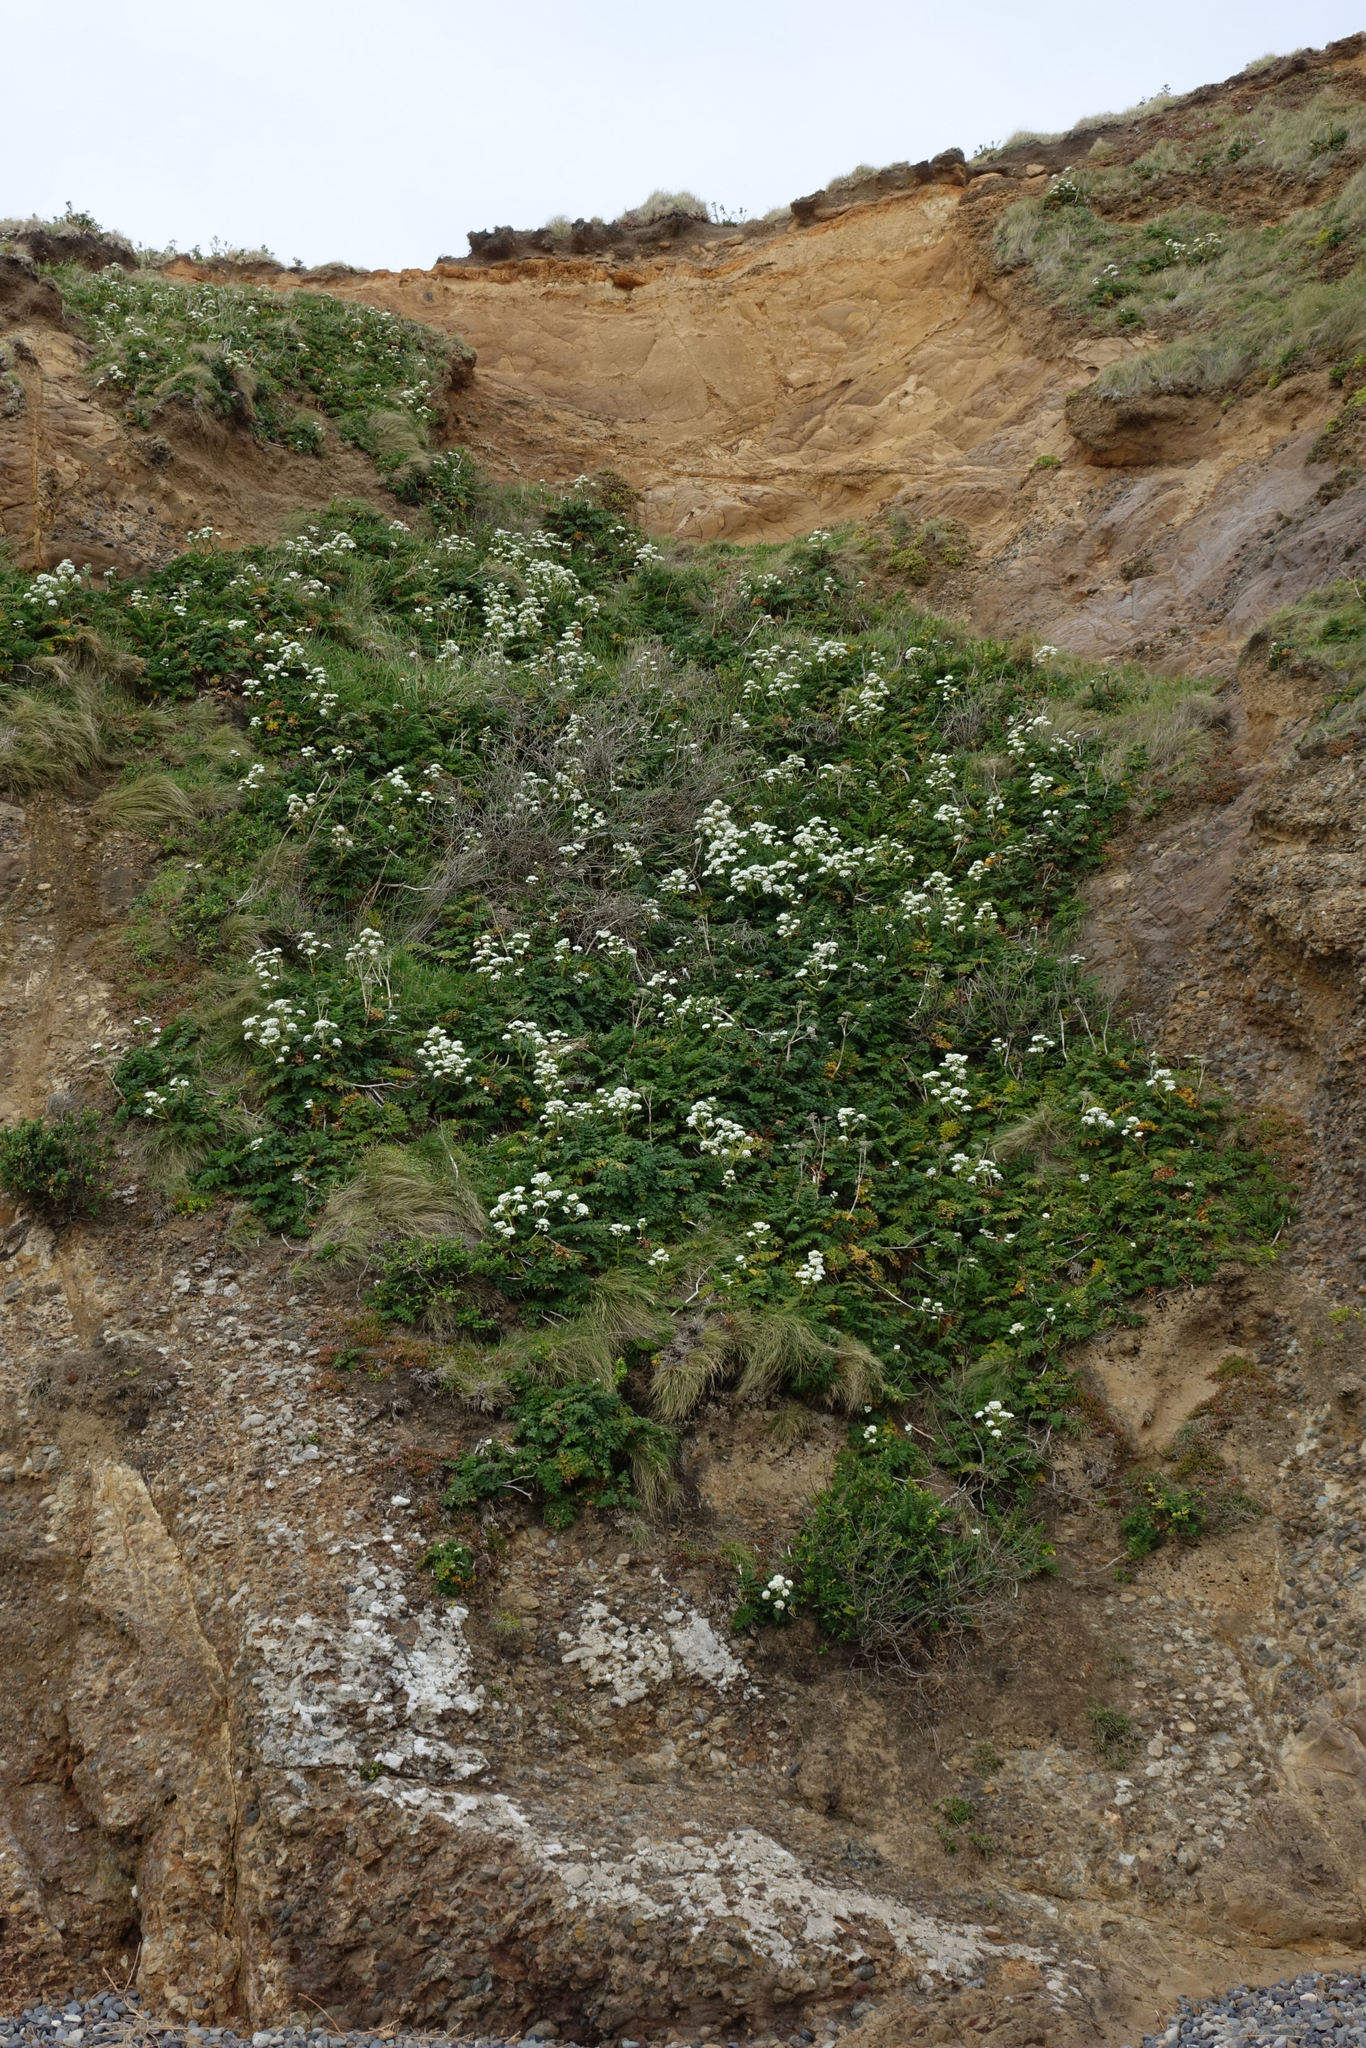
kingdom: Plantae
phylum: Tracheophyta
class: Magnoliopsida
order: Apiales
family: Apiaceae
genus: Anisotome
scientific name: Anisotome lyallii
